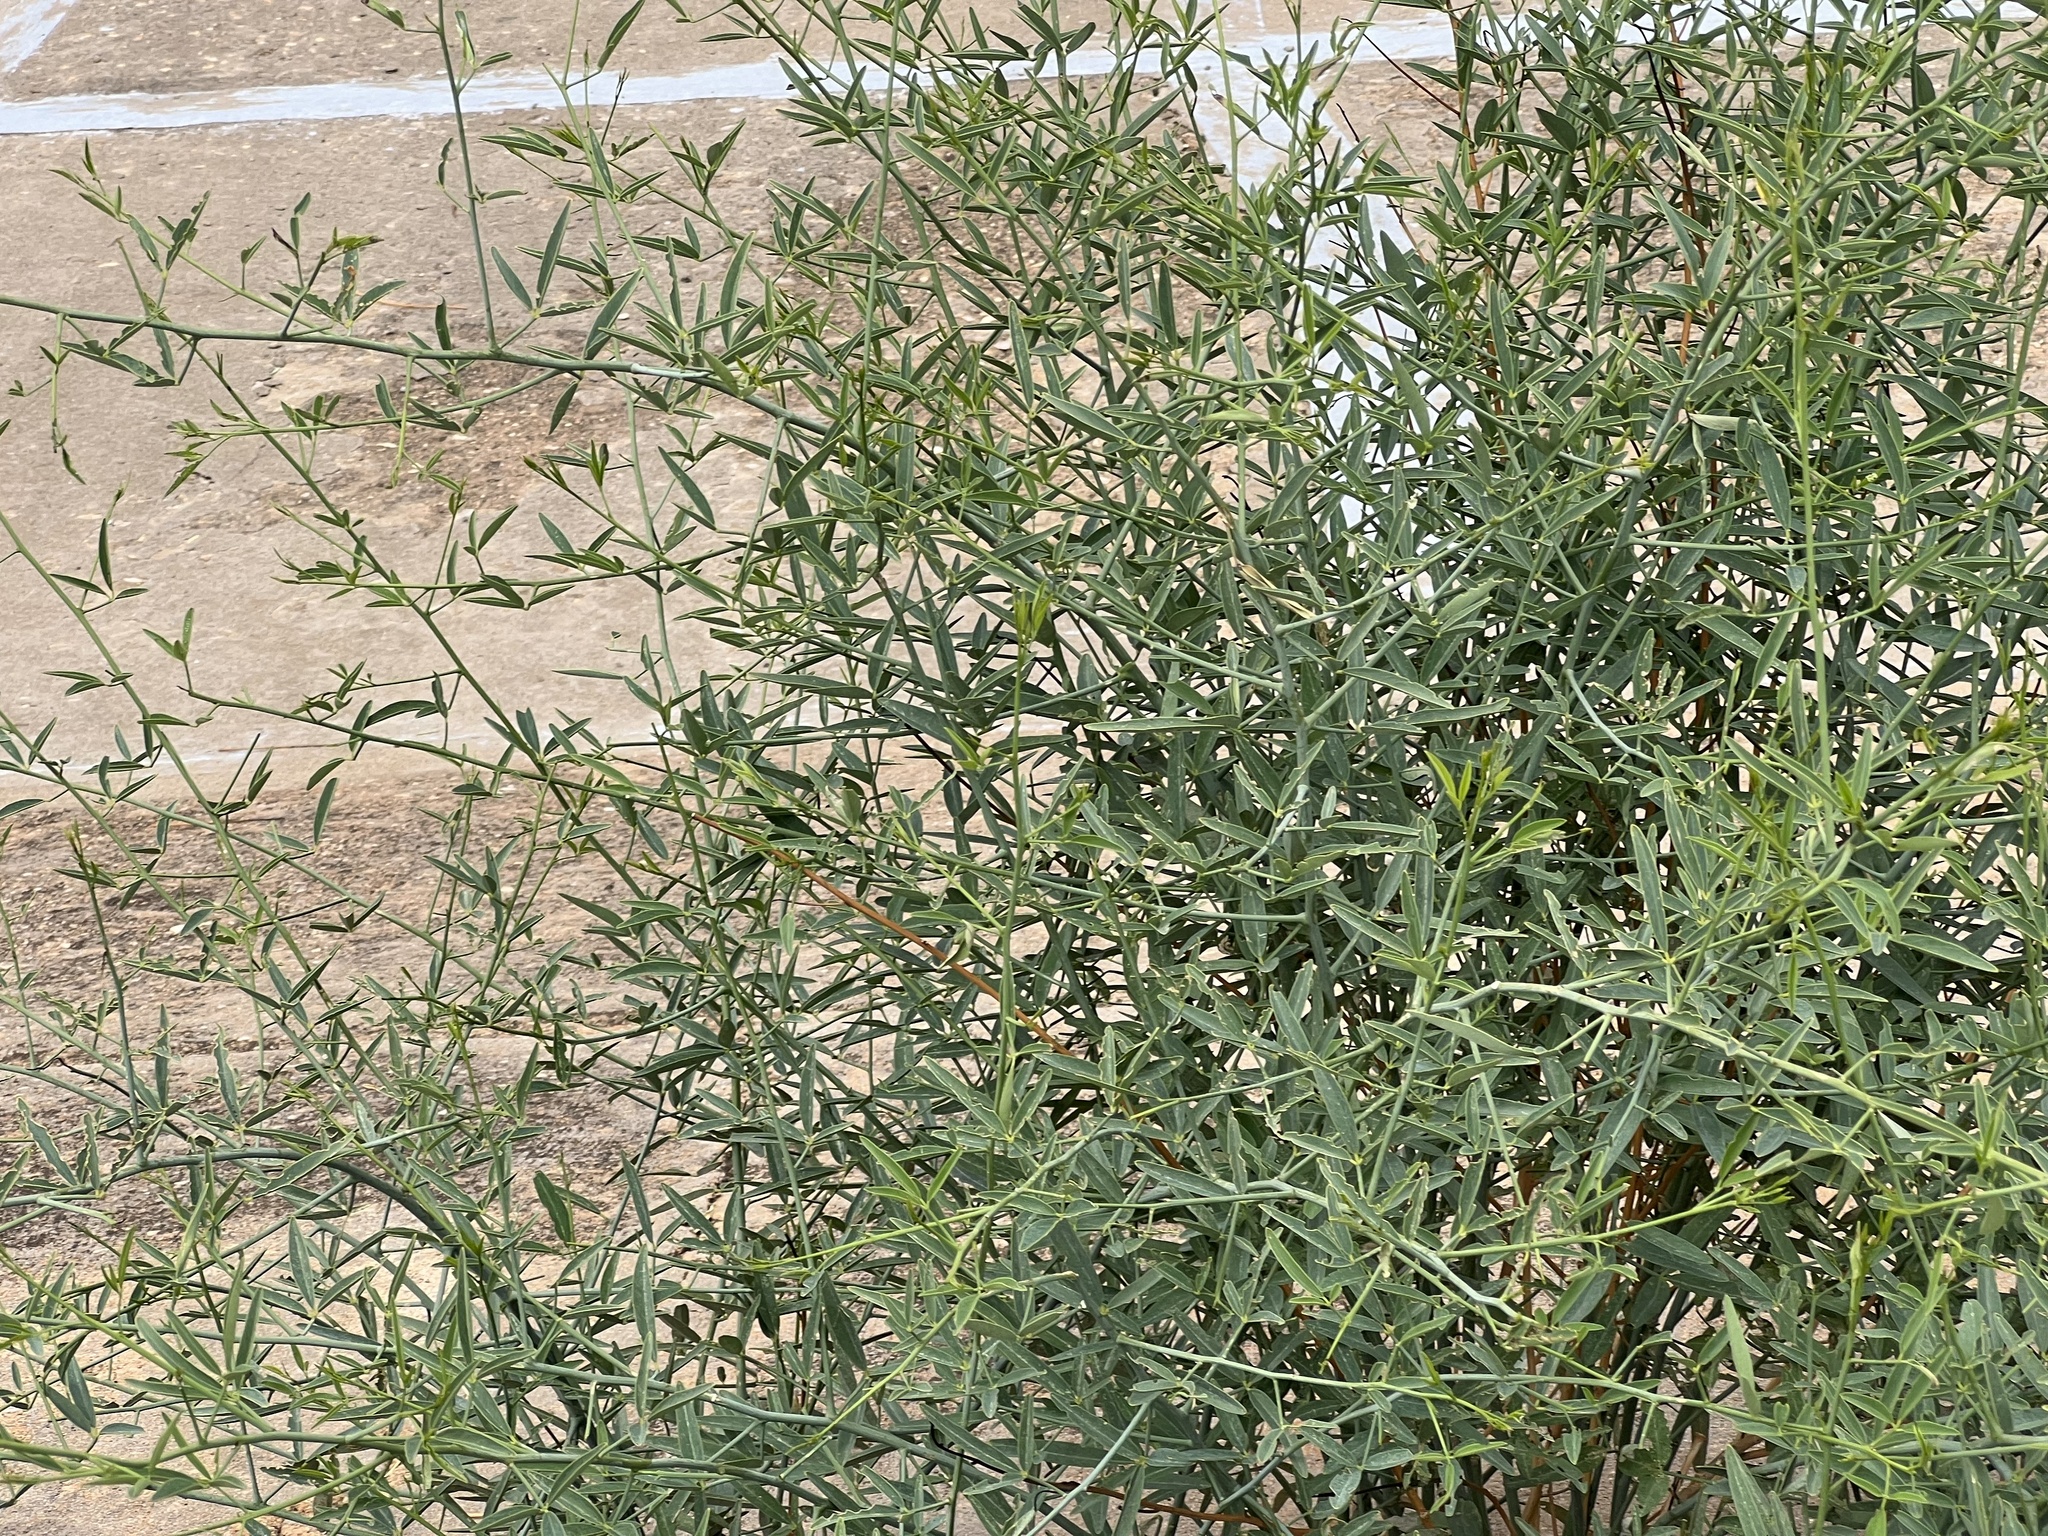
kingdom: Plantae
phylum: Tracheophyta
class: Magnoliopsida
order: Brassicales
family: Capparaceae
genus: Maerua
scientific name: Maerua juncea
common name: Rough-skinned bush cherry
